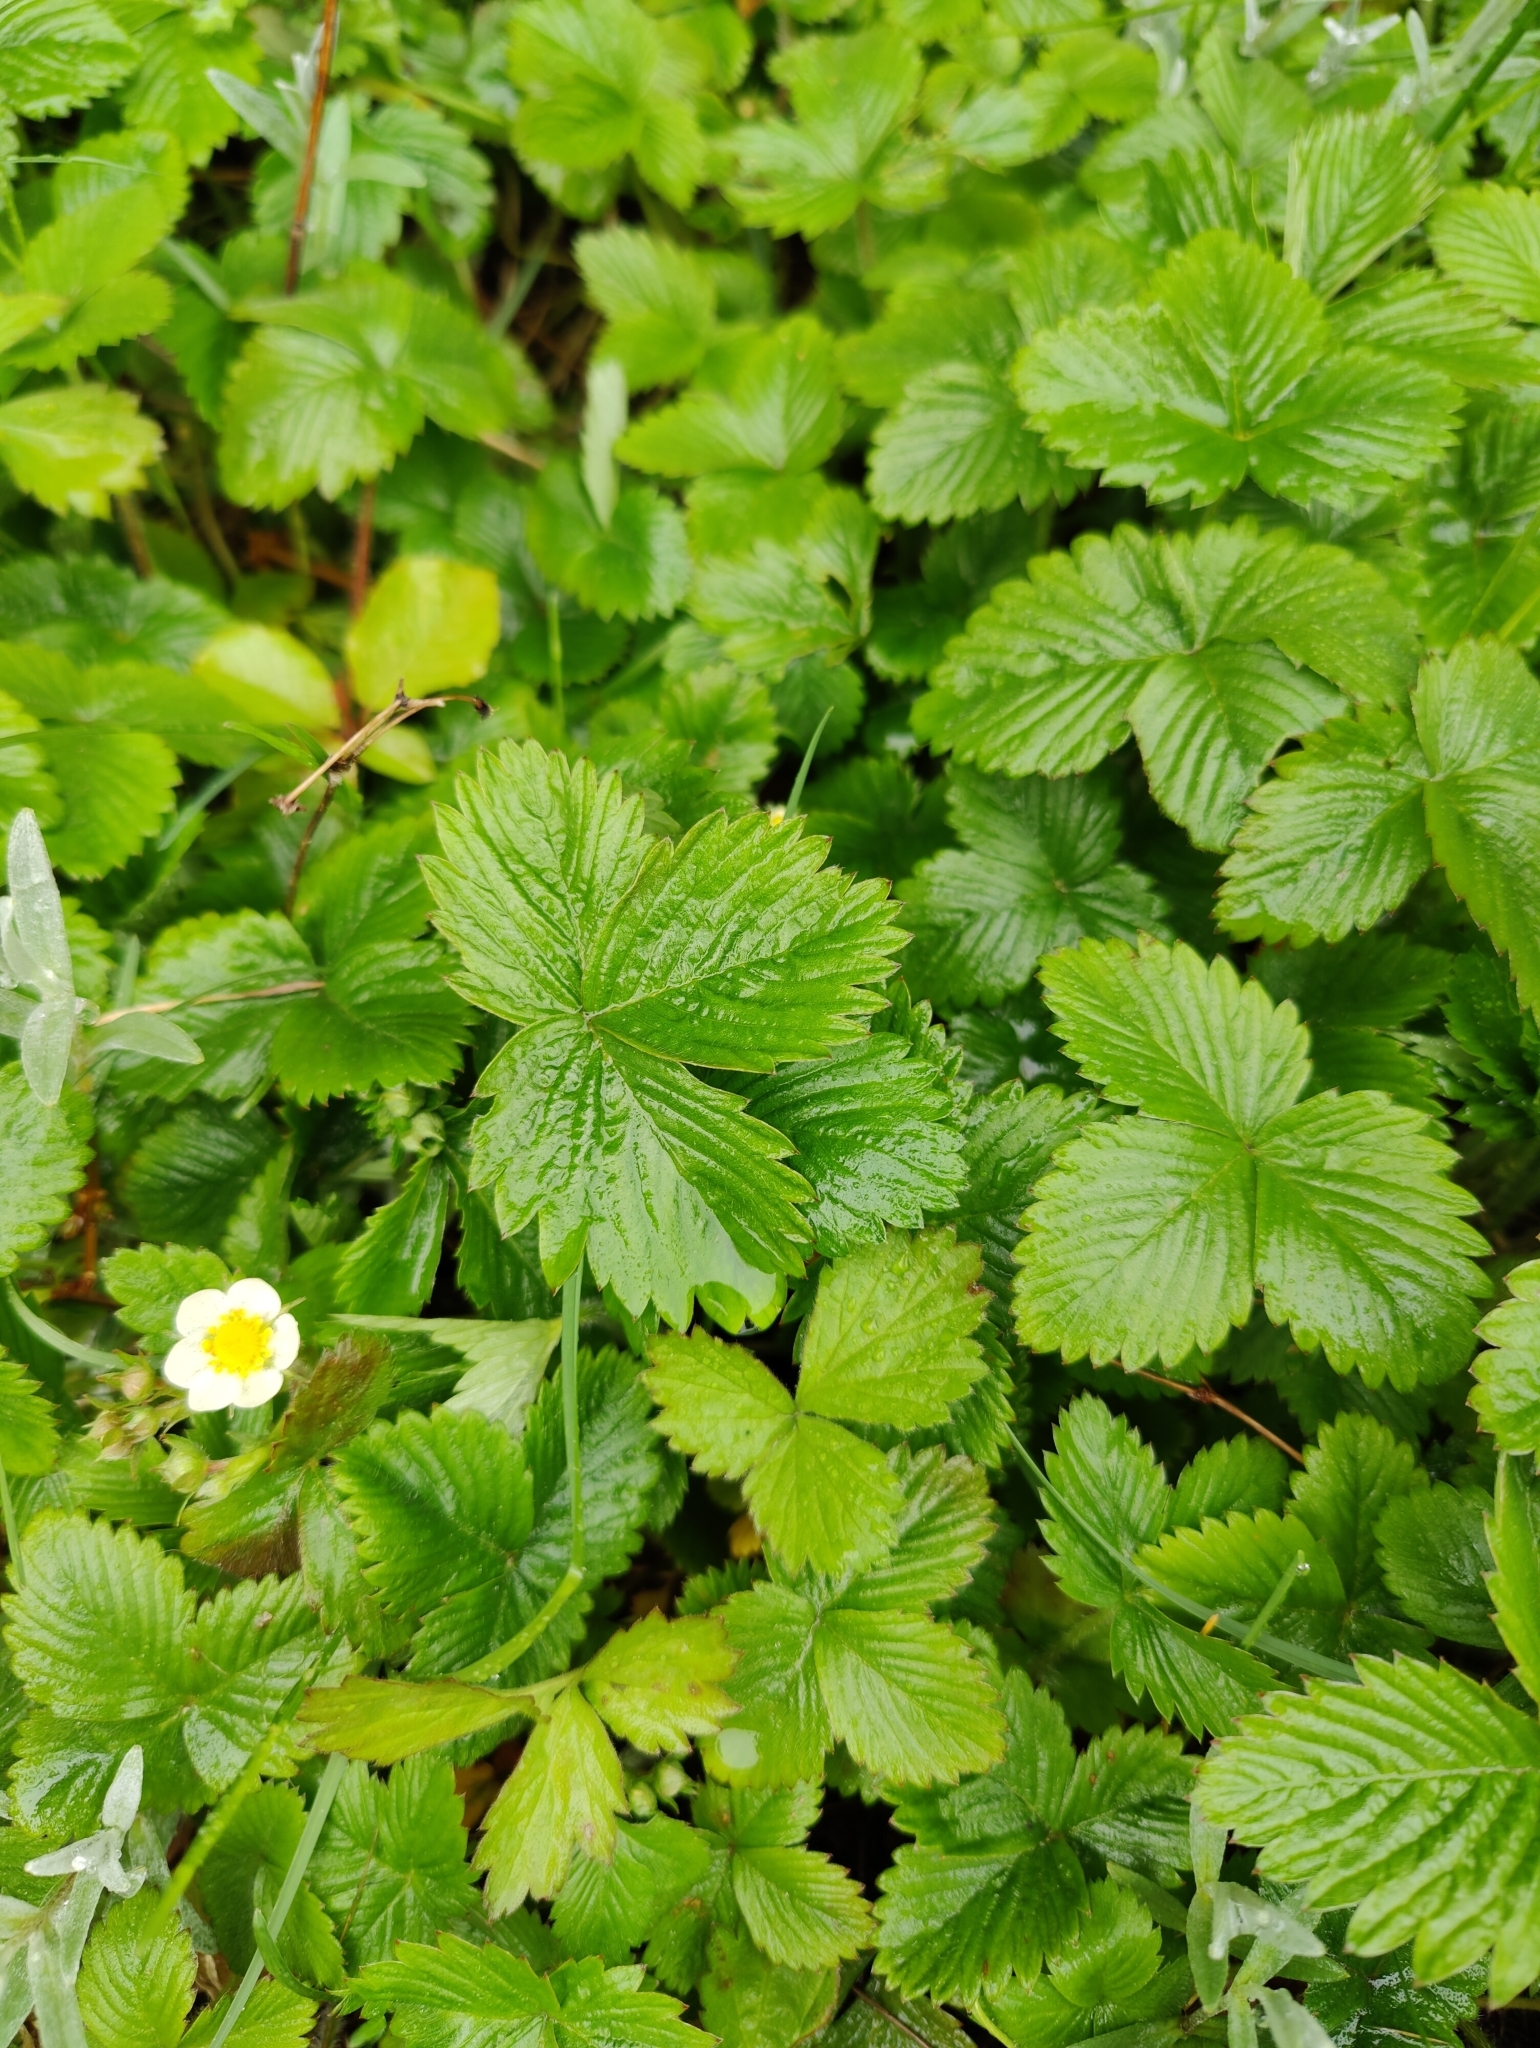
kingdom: Plantae
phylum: Tracheophyta
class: Magnoliopsida
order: Rosales
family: Rosaceae
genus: Fragaria
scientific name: Fragaria vesca
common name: Wild strawberry
